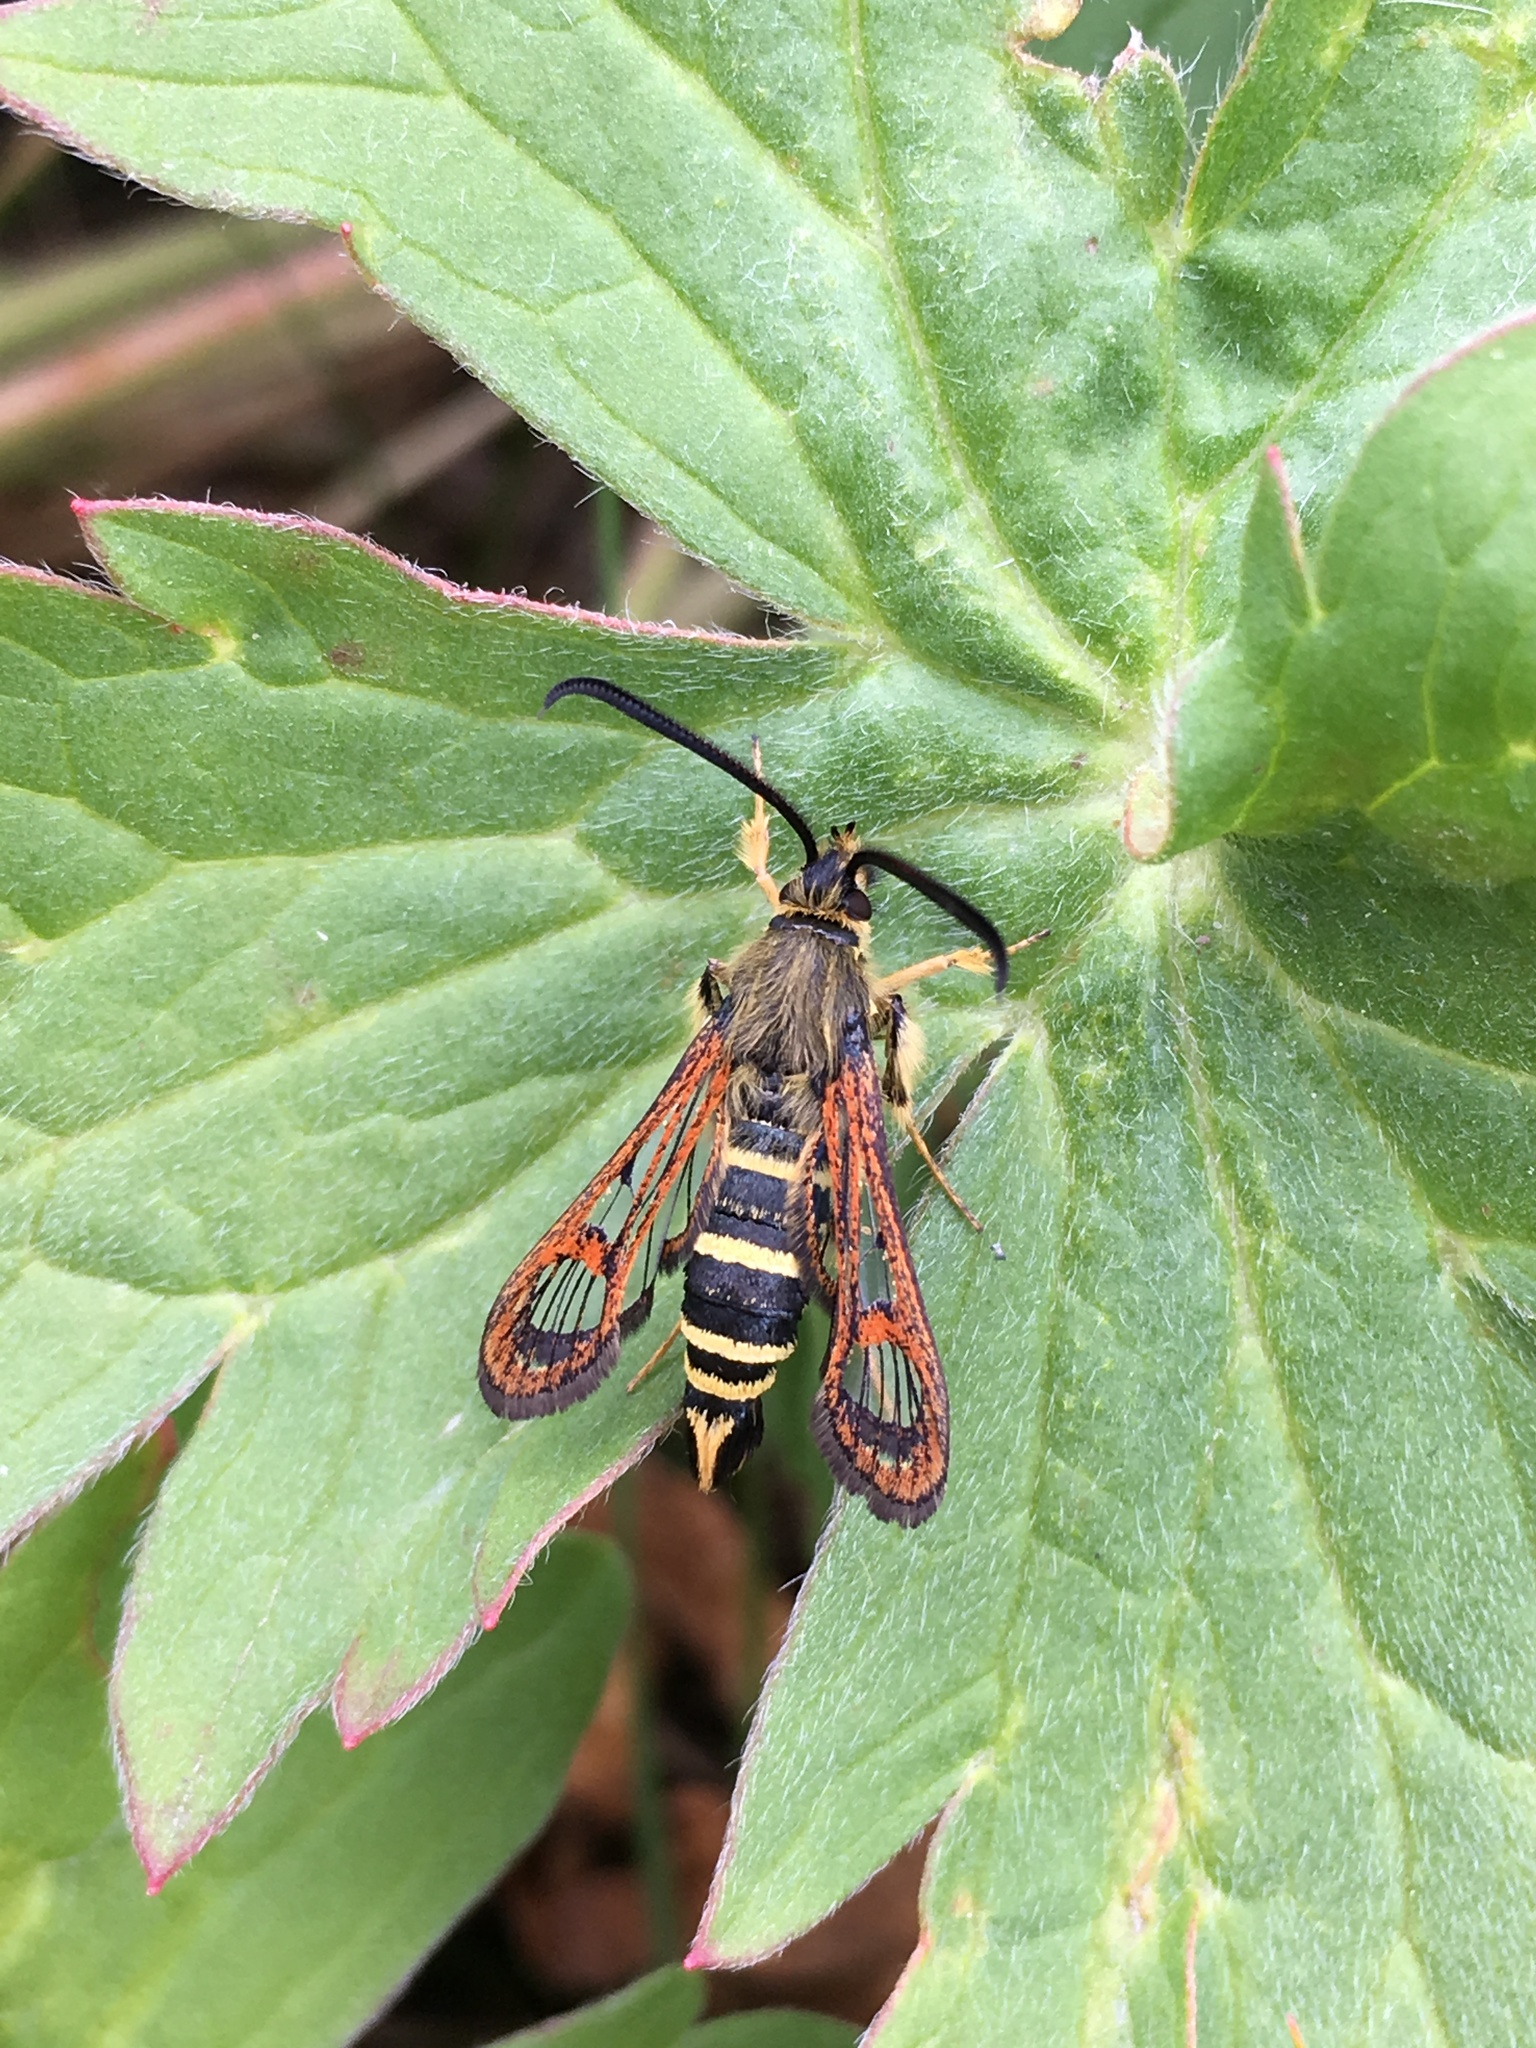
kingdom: Animalia
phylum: Arthropoda
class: Insecta
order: Lepidoptera
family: Sesiidae
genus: Carmenta
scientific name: Carmenta giliae
